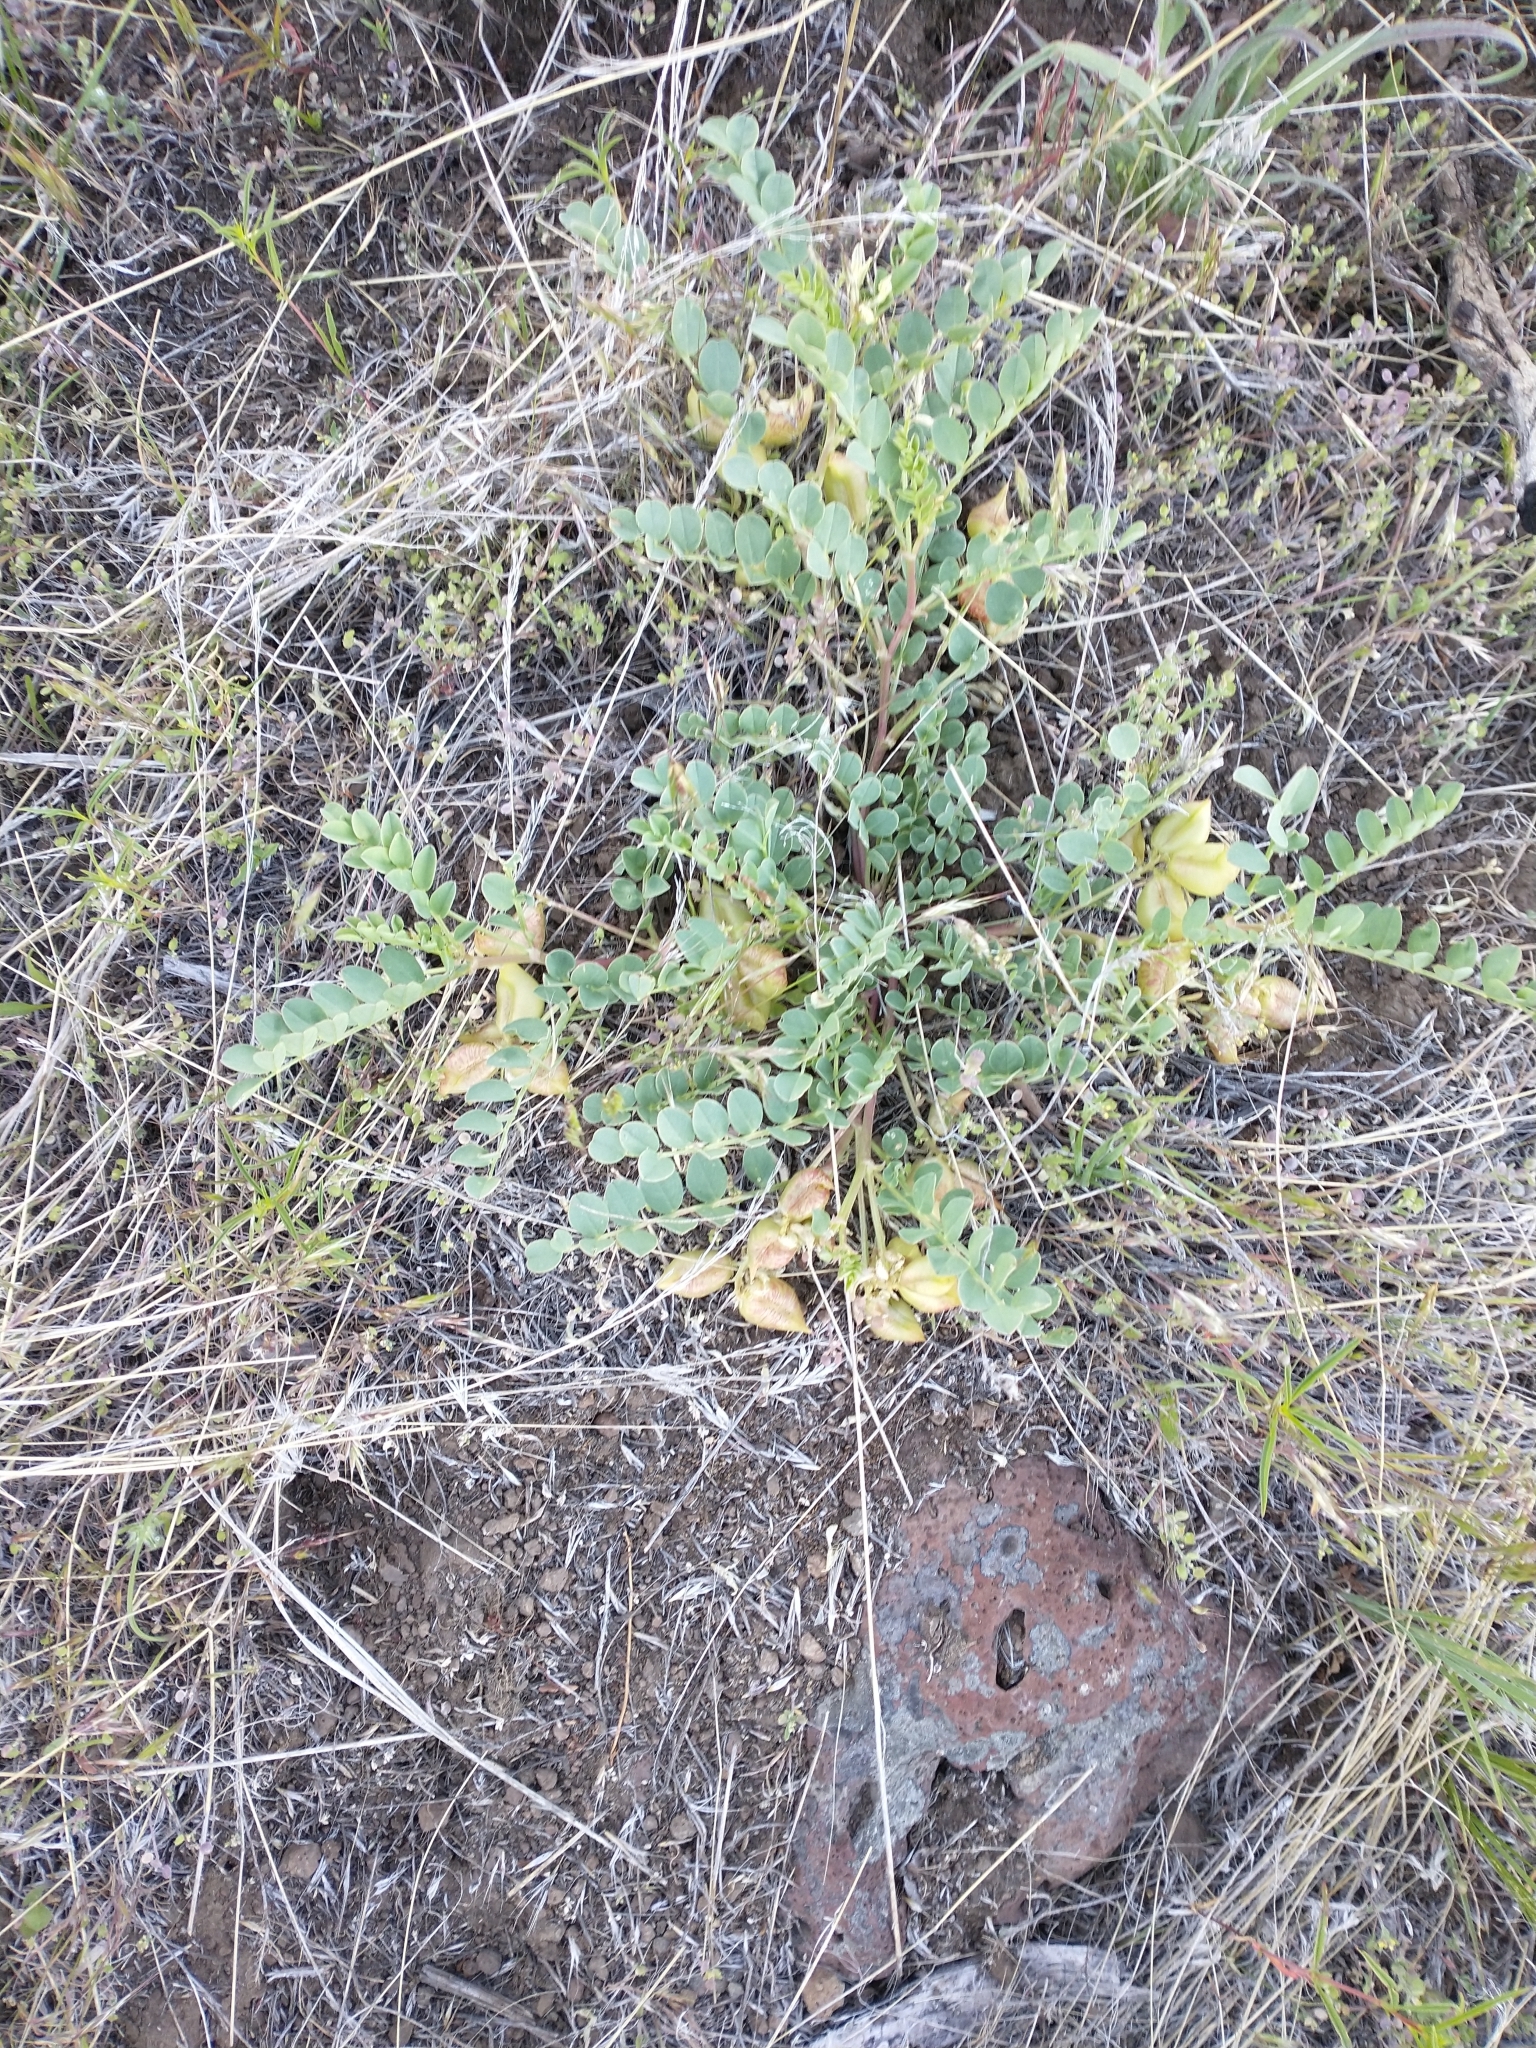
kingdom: Plantae
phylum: Tracheophyta
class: Magnoliopsida
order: Fabales
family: Fabaceae
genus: Astragalus
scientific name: Astragalus lentiginosus
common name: Freckled milkvetch
